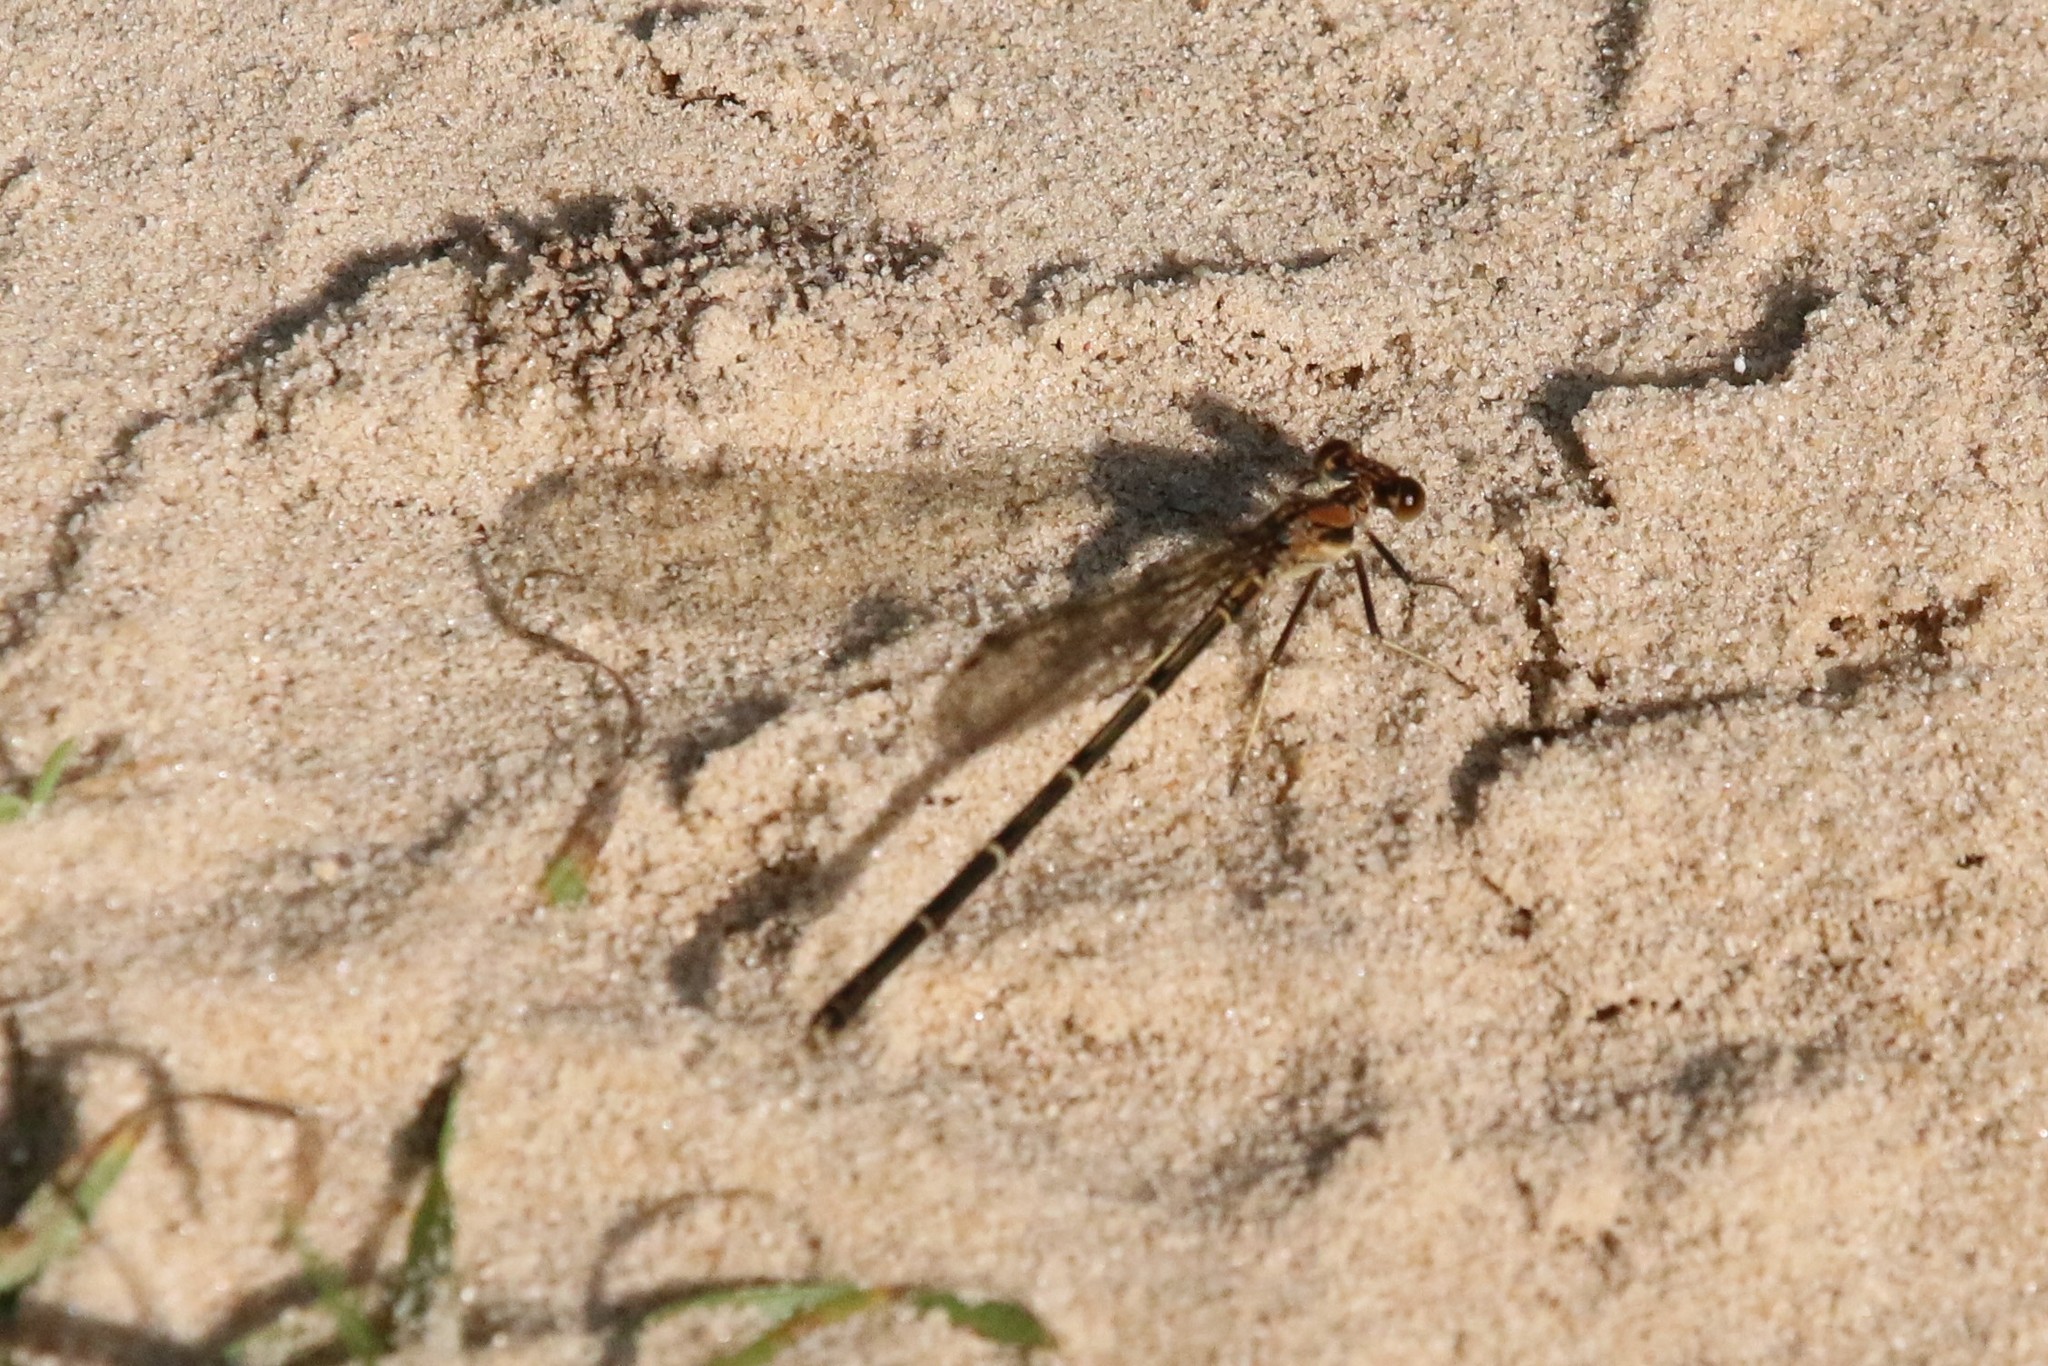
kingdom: Animalia
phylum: Arthropoda
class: Insecta
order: Odonata
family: Coenagrionidae
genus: Argia
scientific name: Argia tibialis
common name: Blue-tipped dancer
